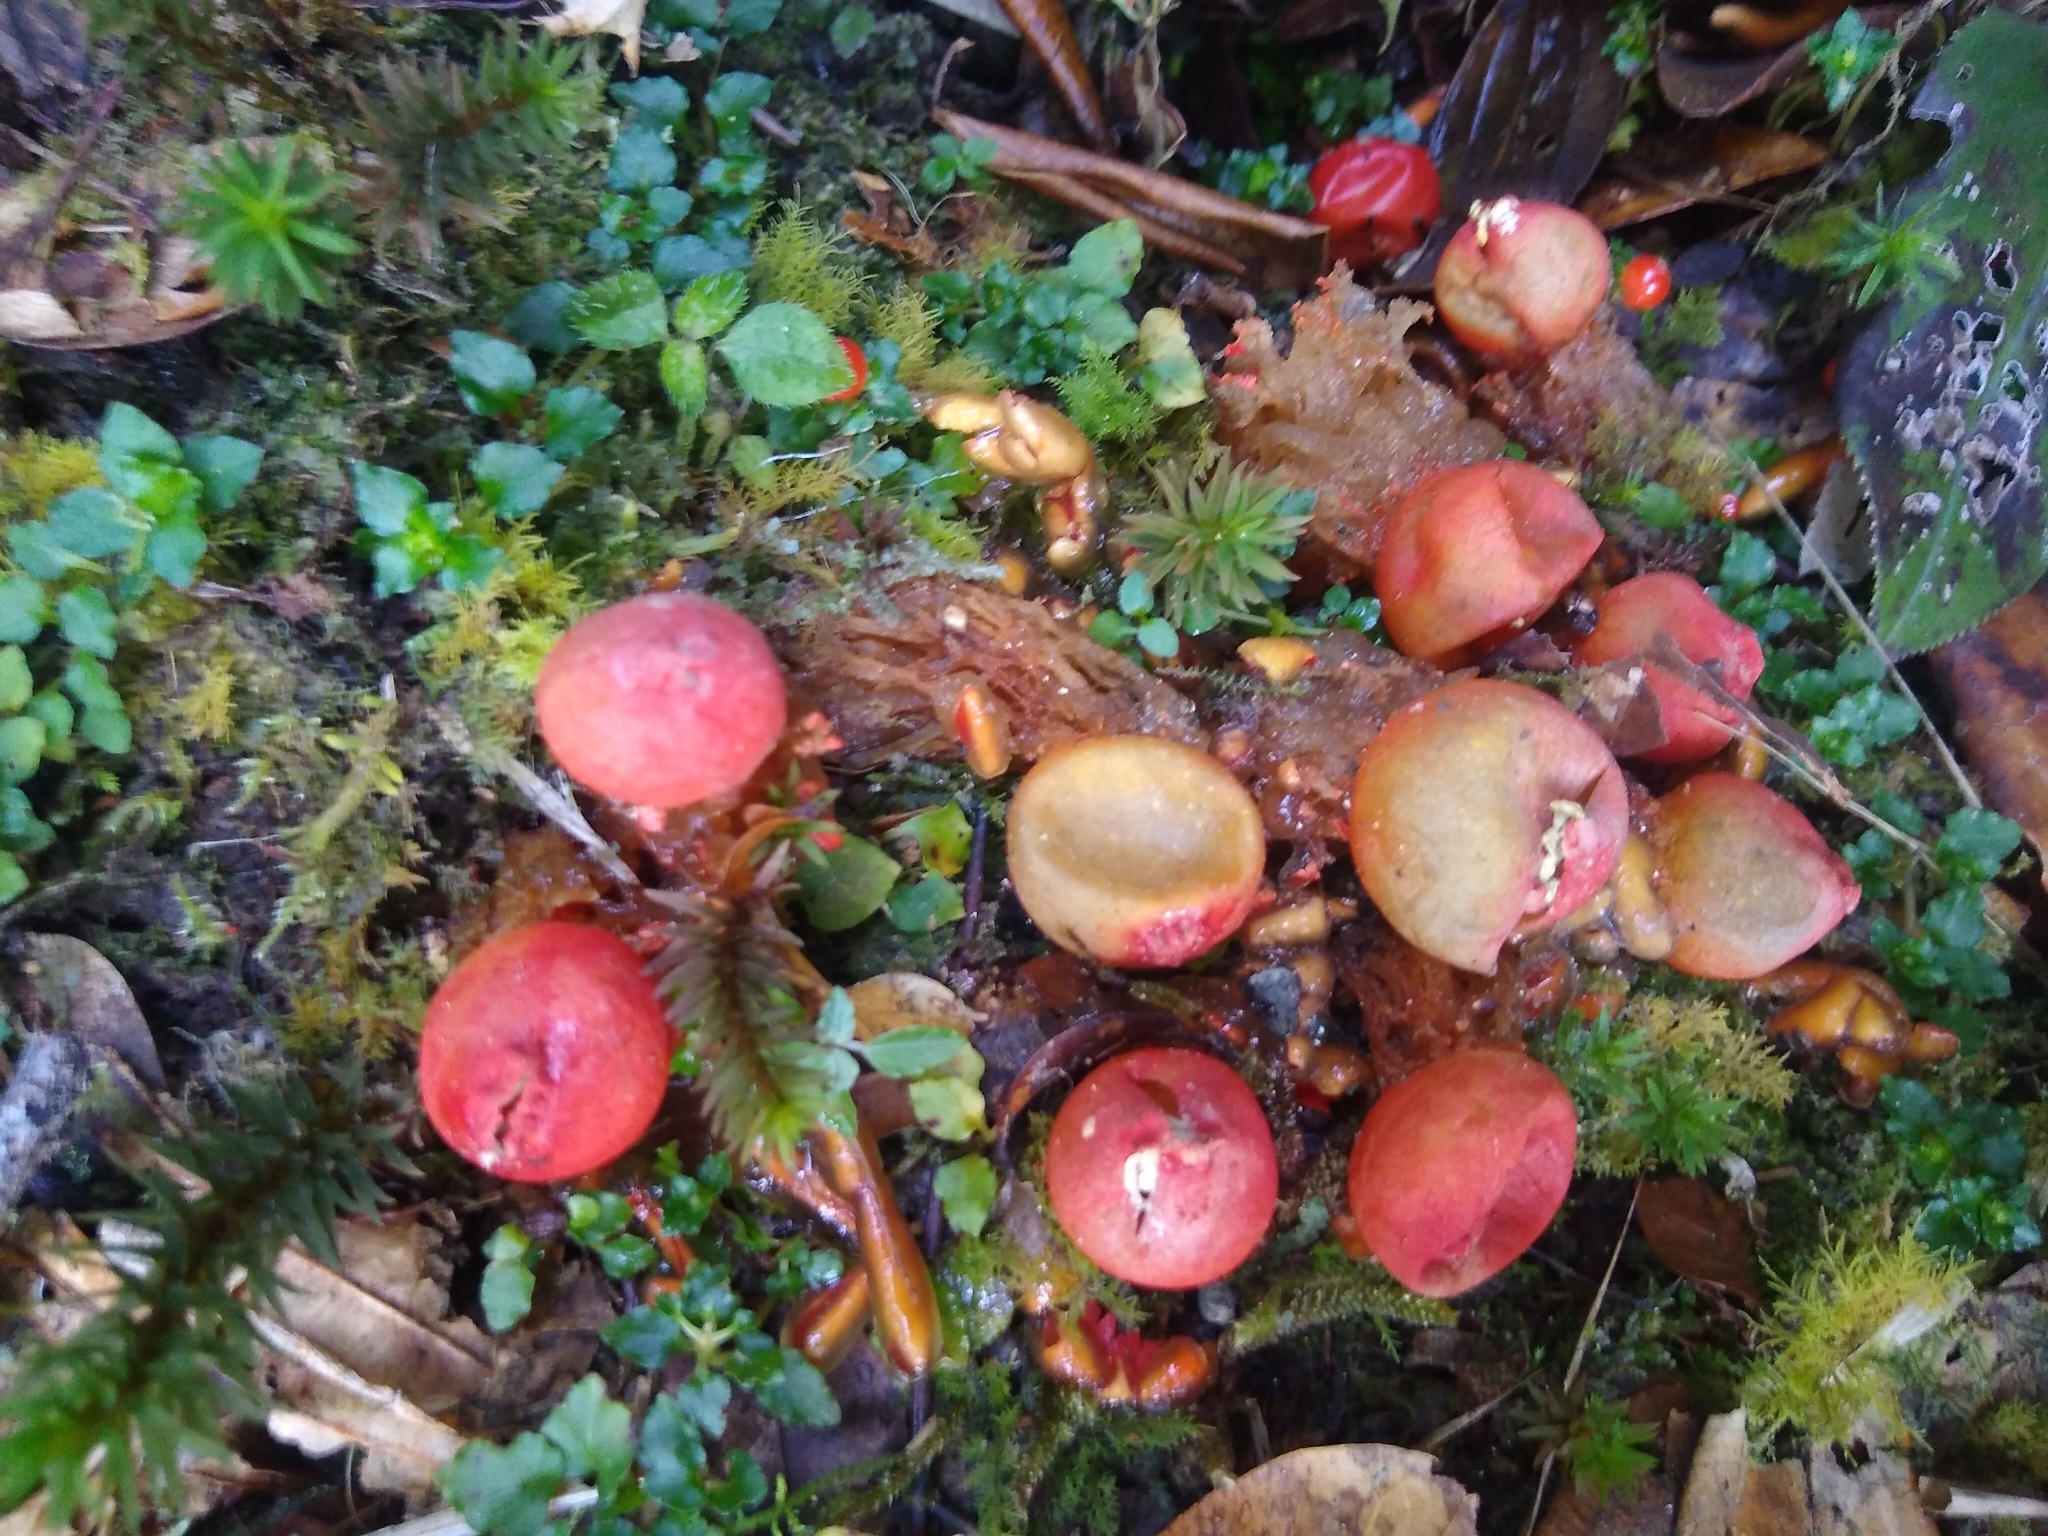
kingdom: Fungi
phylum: Basidiomycota
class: Agaricomycetes
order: Boletales
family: Calostomataceae
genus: Calostoma
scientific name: Calostoma cinnabarinum
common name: Stalked puffball-in-aspic
